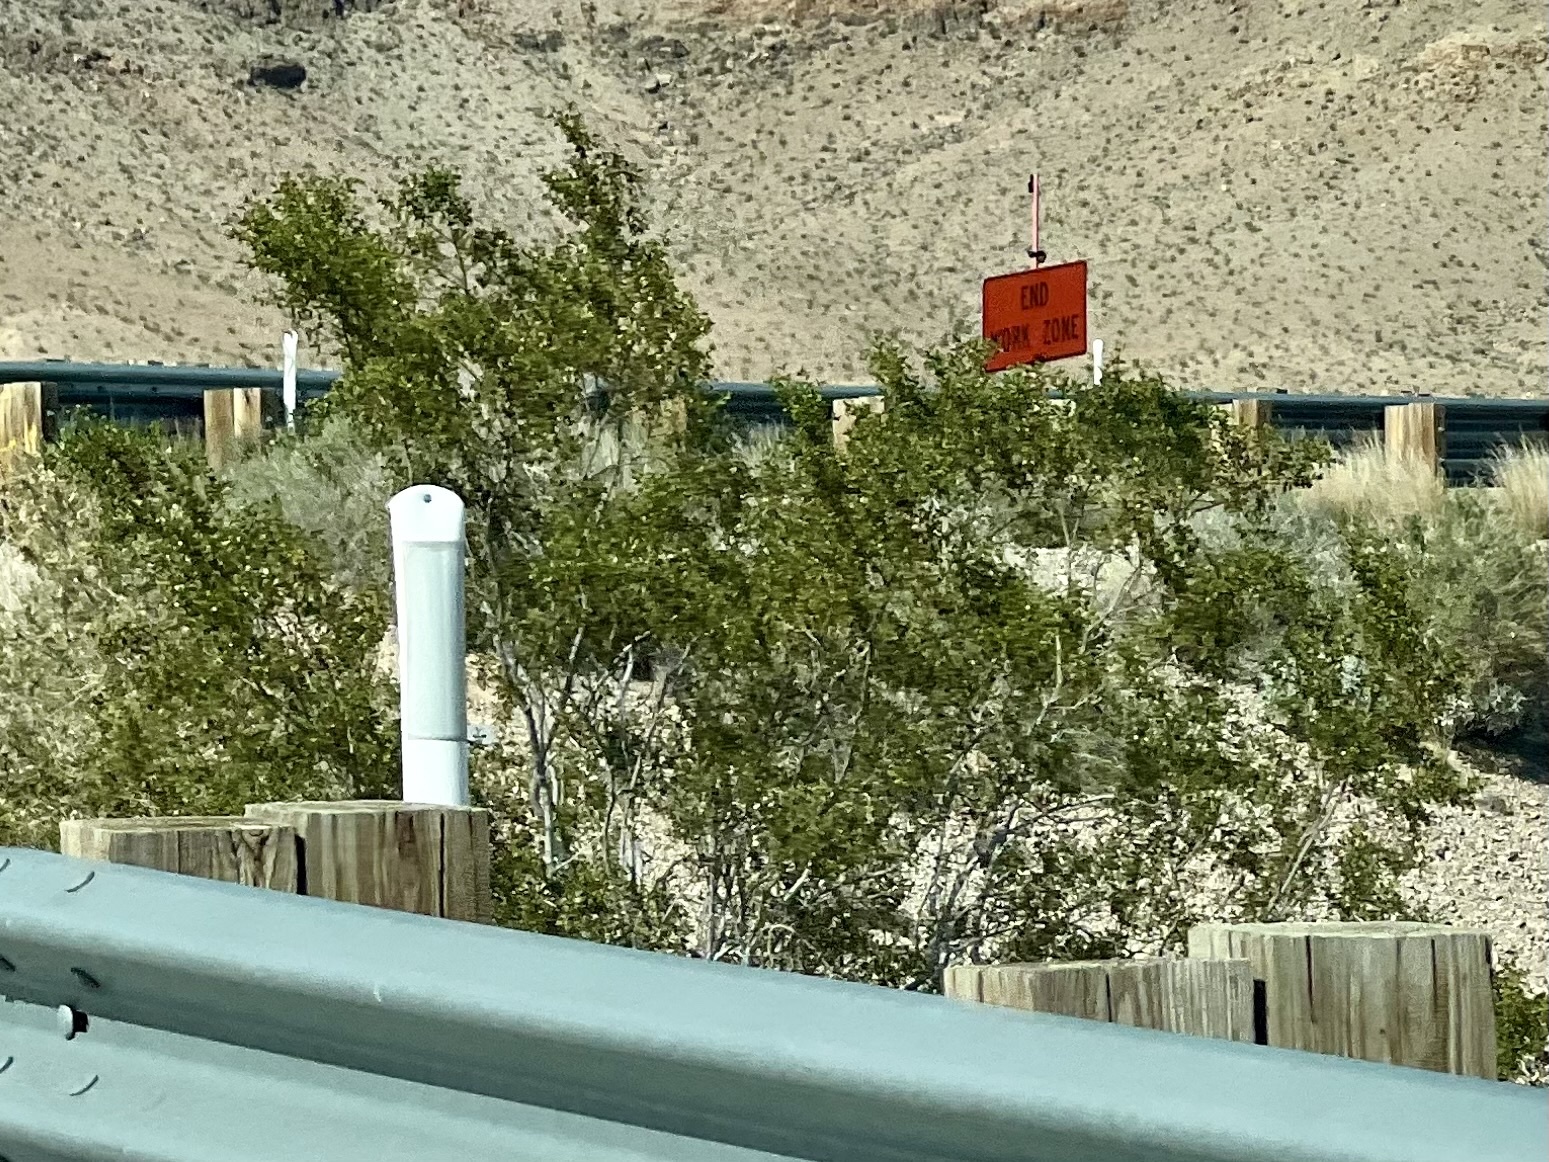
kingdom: Plantae
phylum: Tracheophyta
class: Magnoliopsida
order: Zygophyllales
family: Zygophyllaceae
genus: Larrea
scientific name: Larrea tridentata
